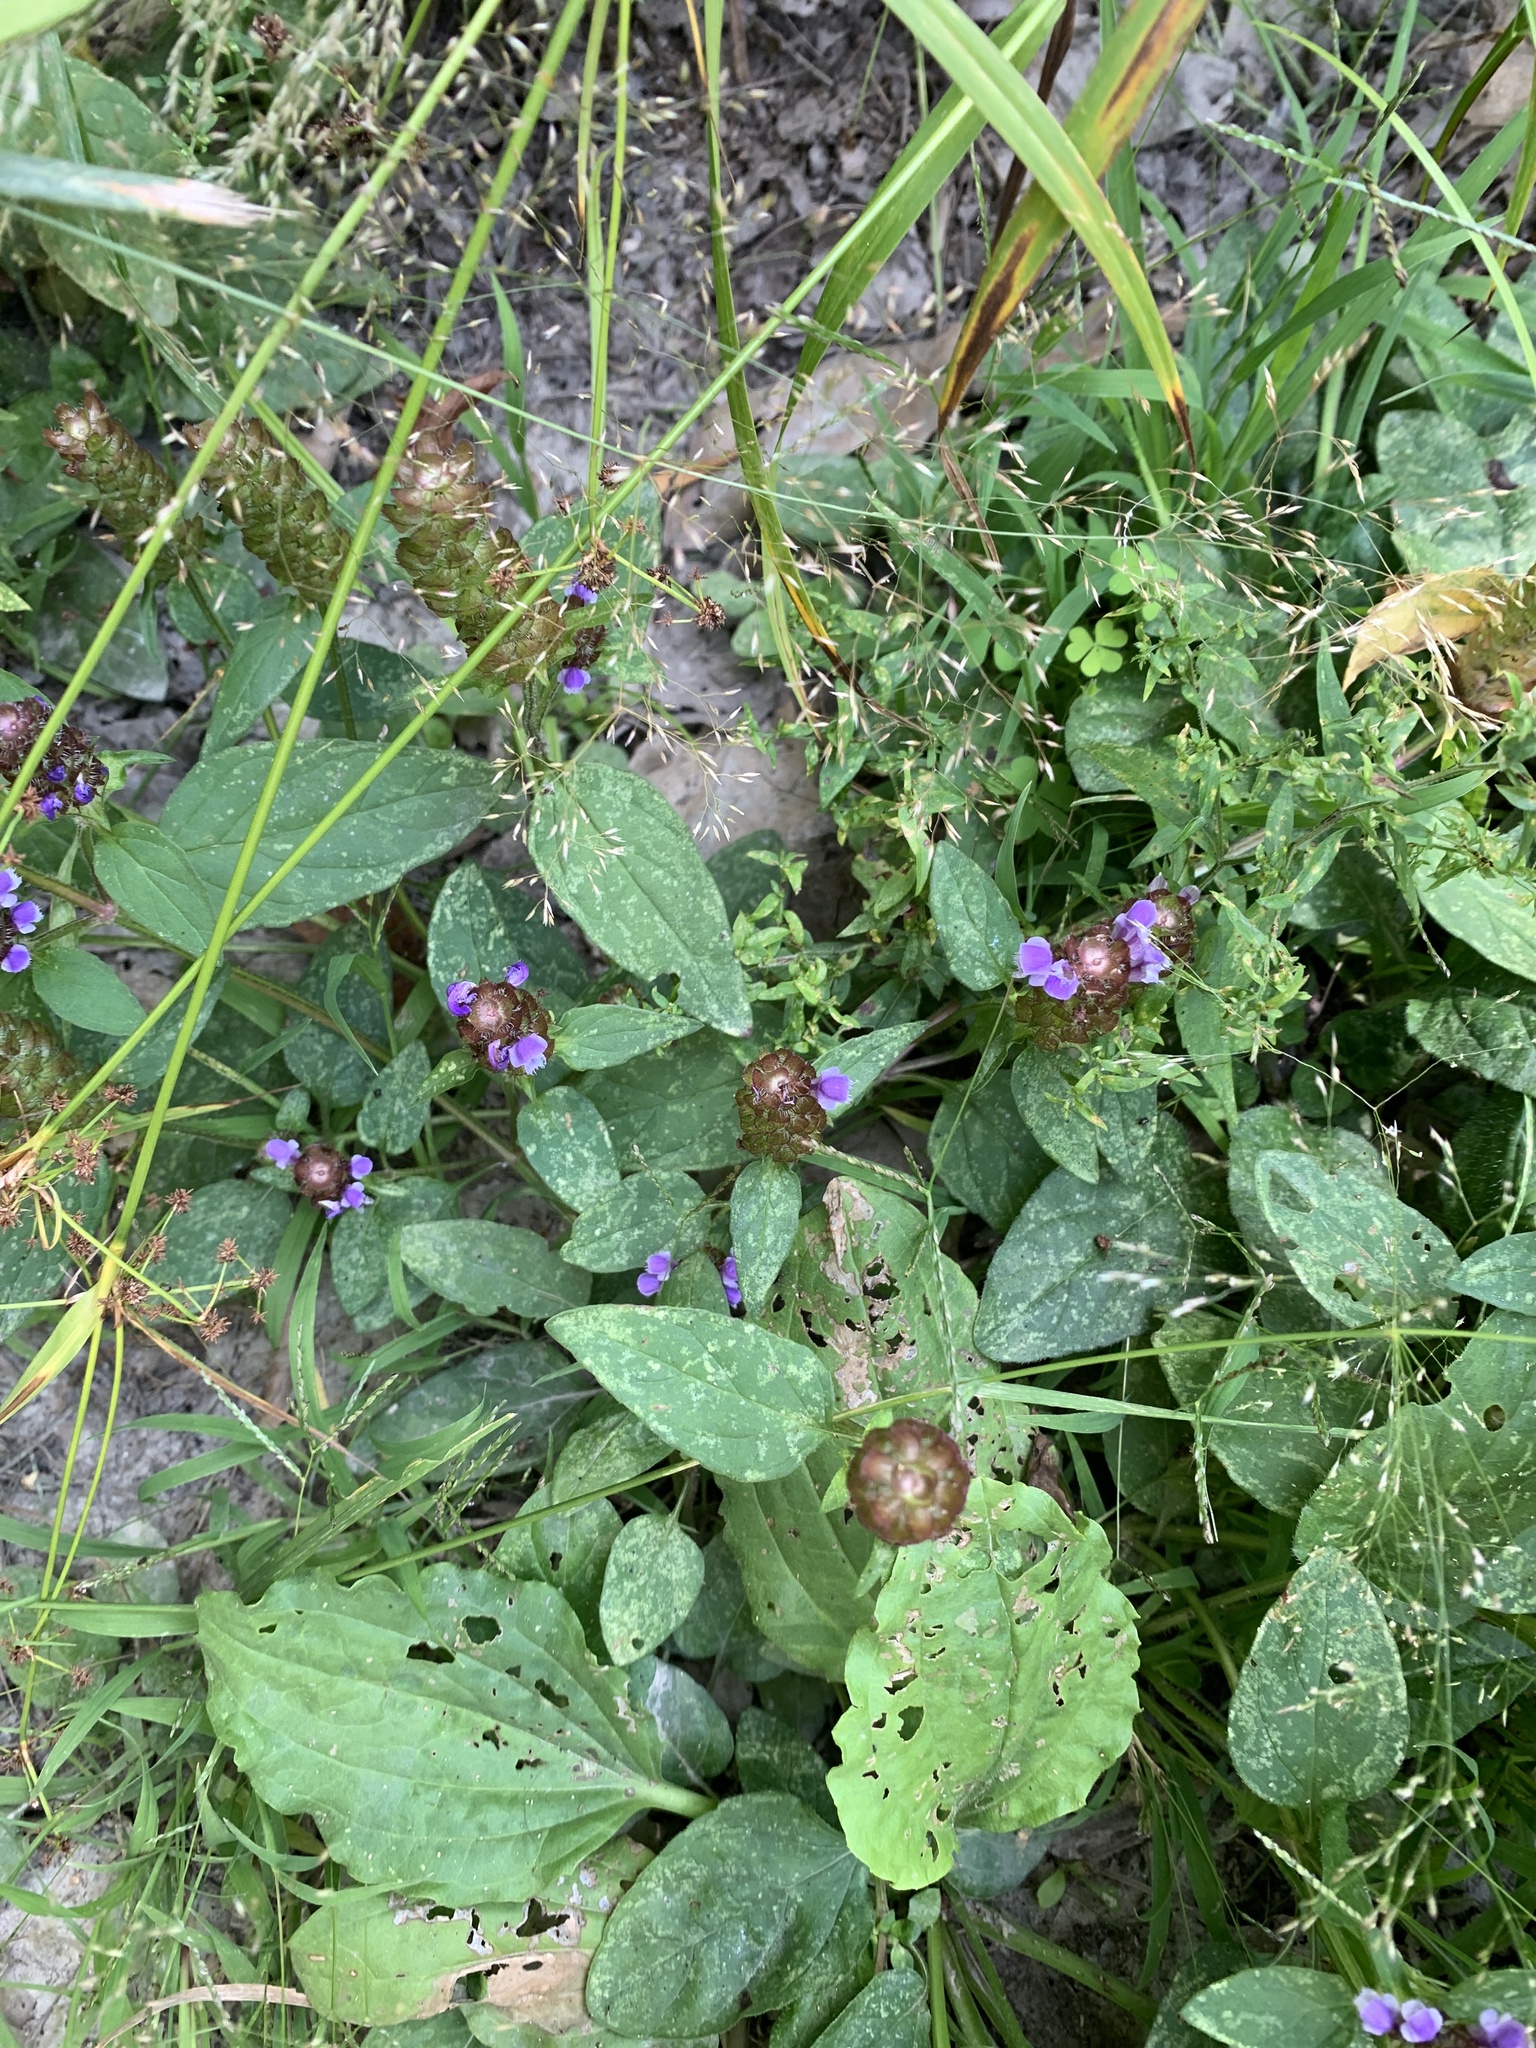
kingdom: Plantae
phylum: Tracheophyta
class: Magnoliopsida
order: Lamiales
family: Lamiaceae
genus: Prunella
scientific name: Prunella vulgaris
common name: Heal-all
